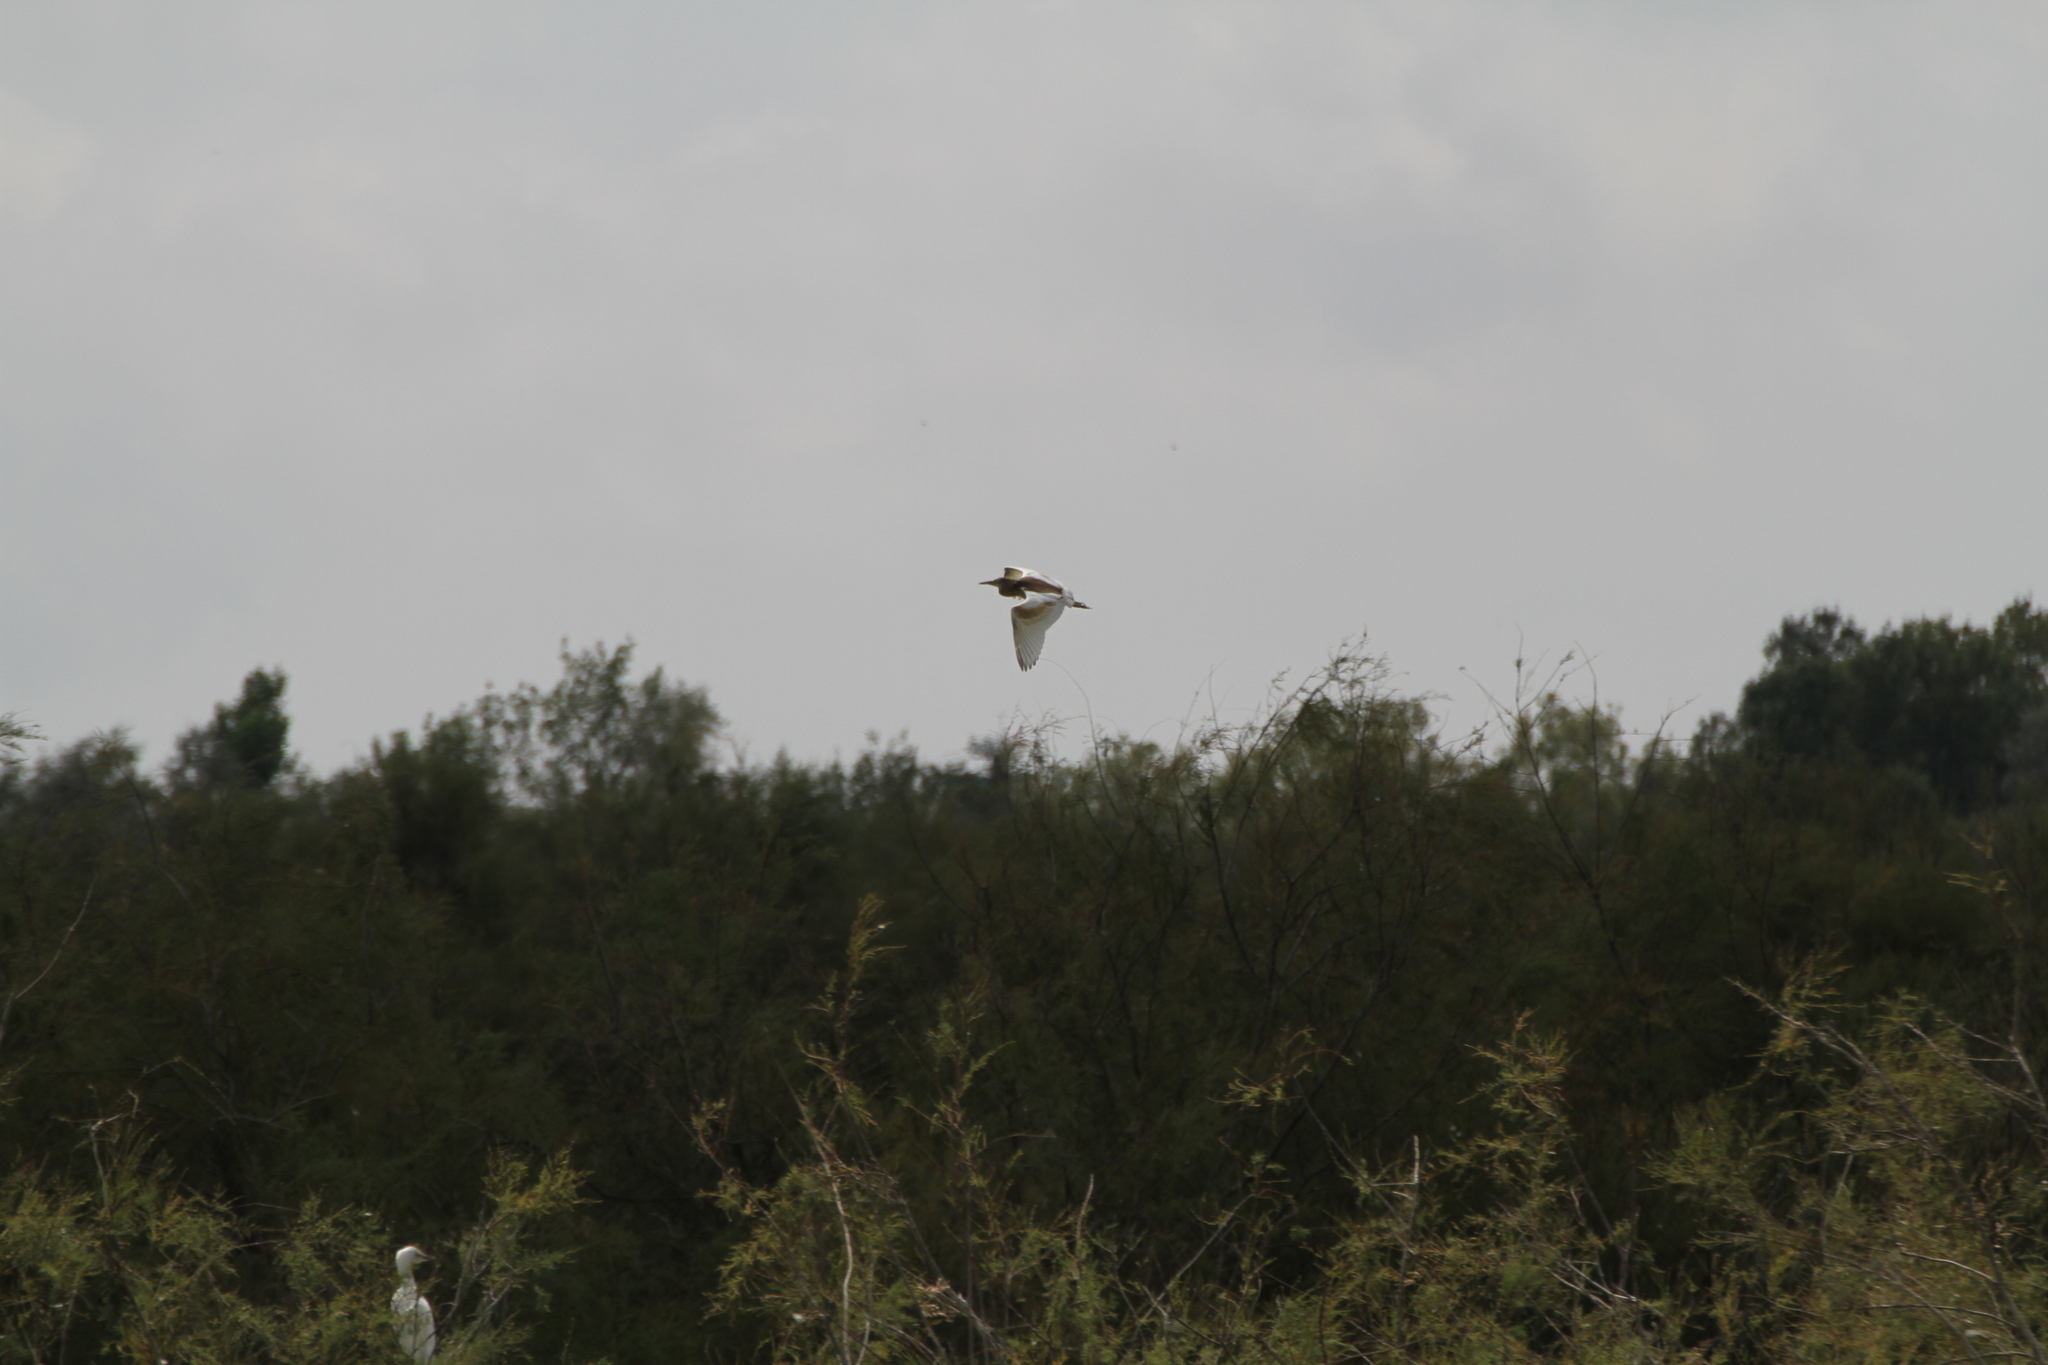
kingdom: Animalia
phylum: Chordata
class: Aves
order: Pelecaniformes
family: Ardeidae
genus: Ardeola
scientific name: Ardeola ralloides
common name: Squacco heron
